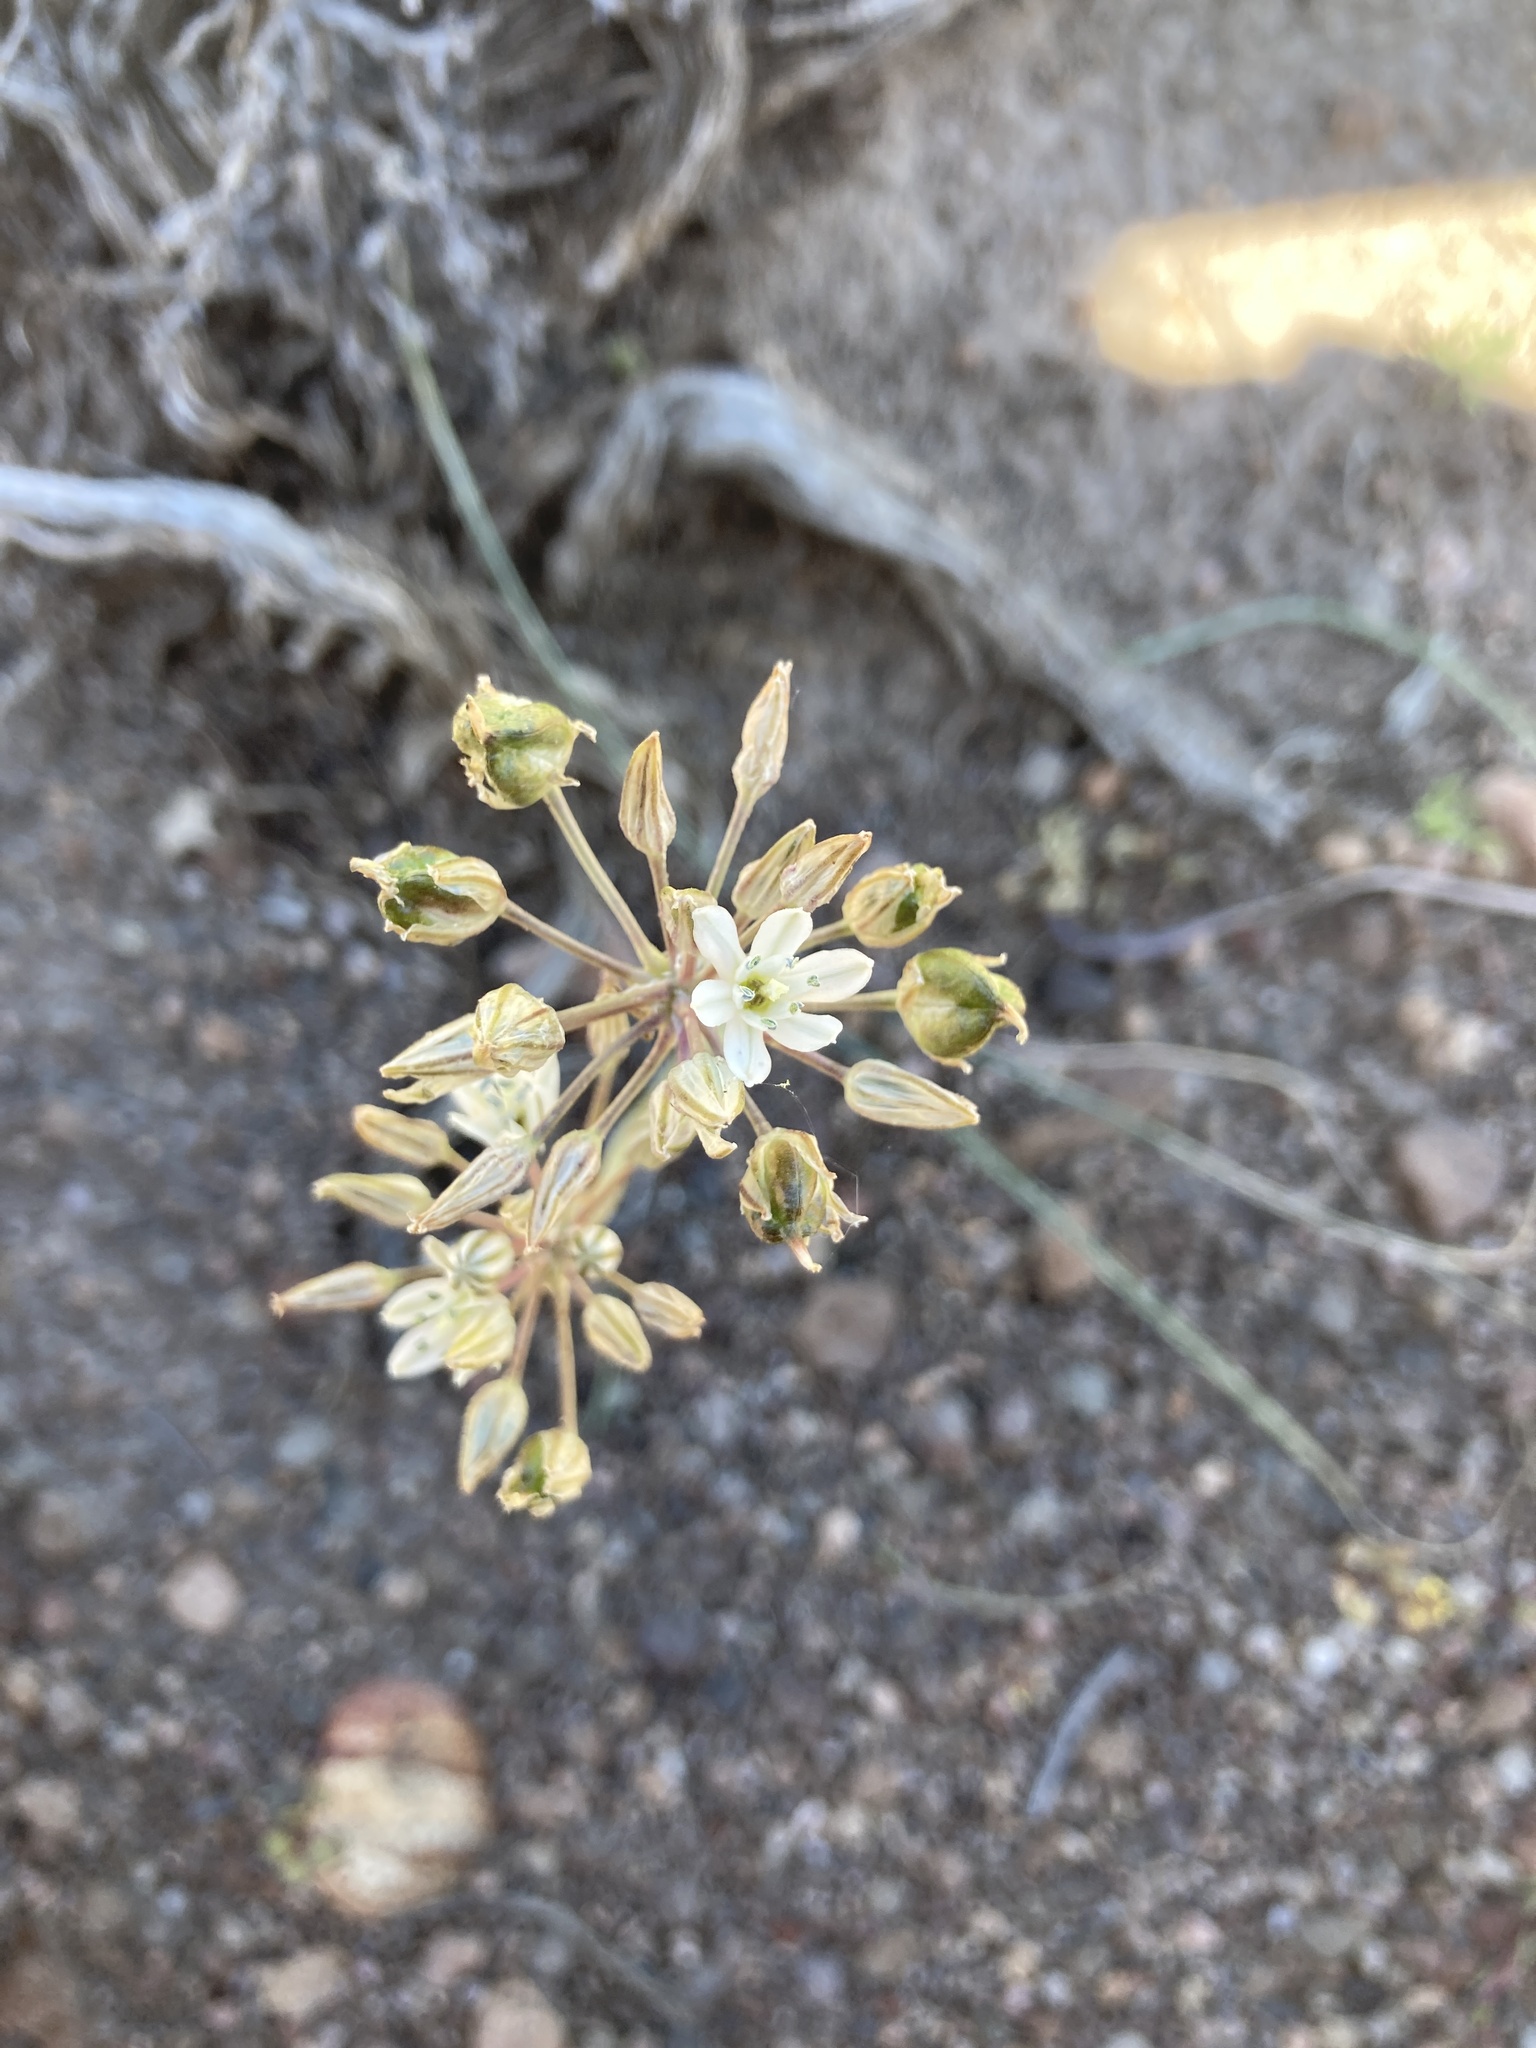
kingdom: Plantae
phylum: Tracheophyta
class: Liliopsida
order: Asparagales
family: Asparagaceae
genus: Muilla
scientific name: Muilla transmontana
